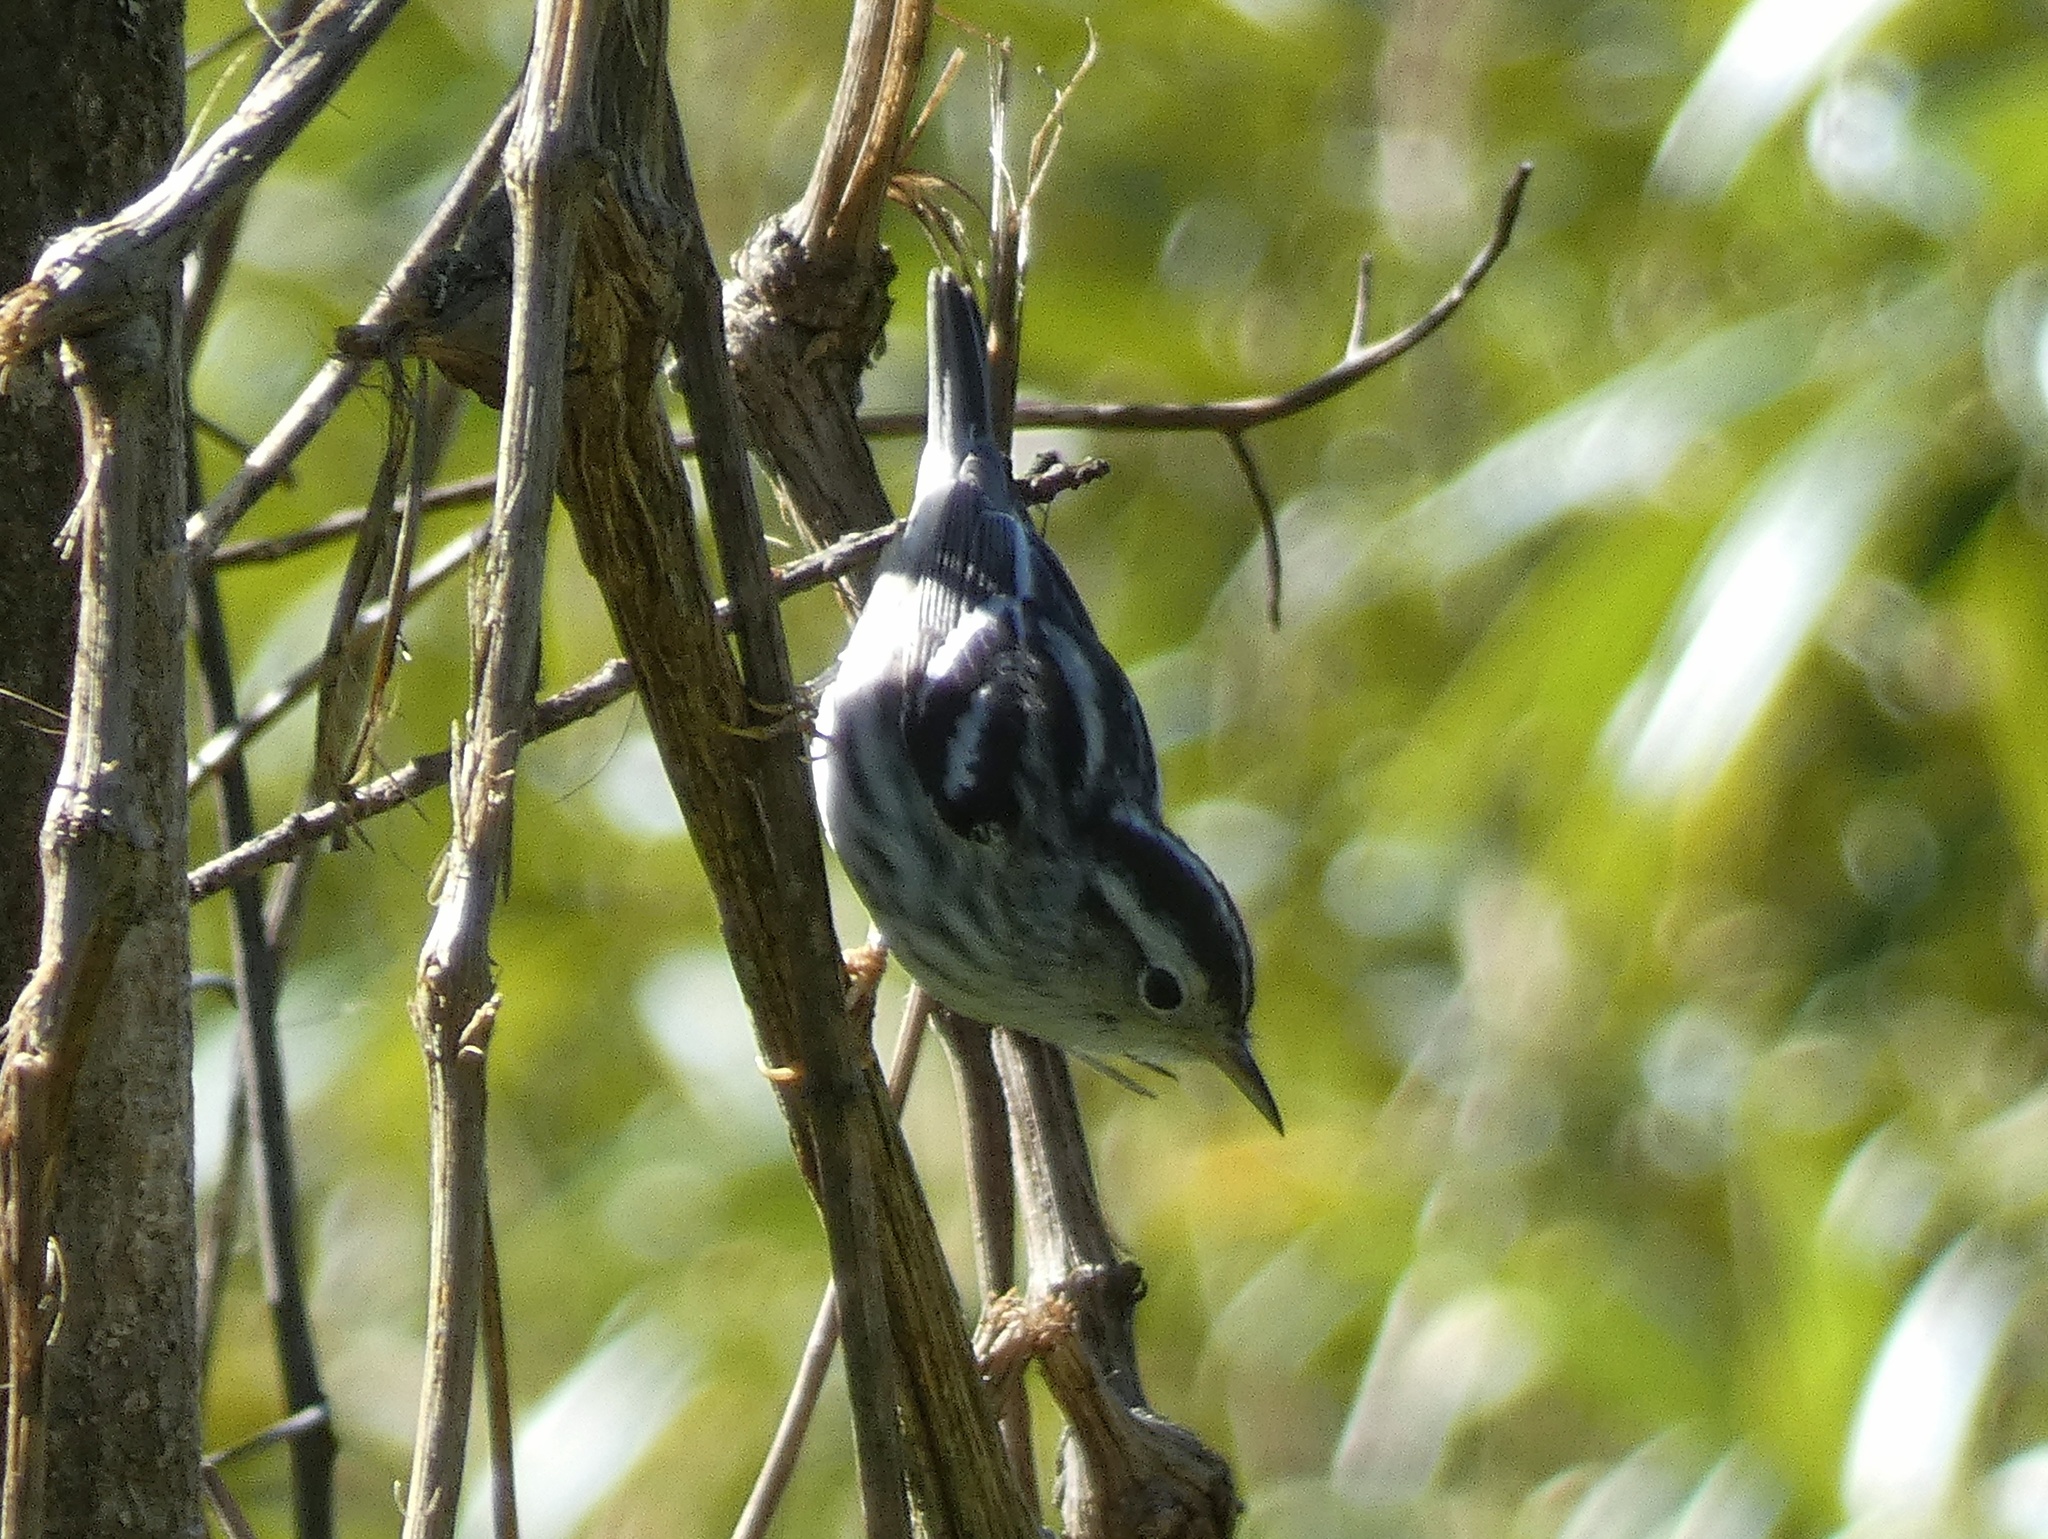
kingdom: Animalia
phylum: Chordata
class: Aves
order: Passeriformes
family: Parulidae
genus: Mniotilta
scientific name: Mniotilta varia
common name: Black-and-white warbler
